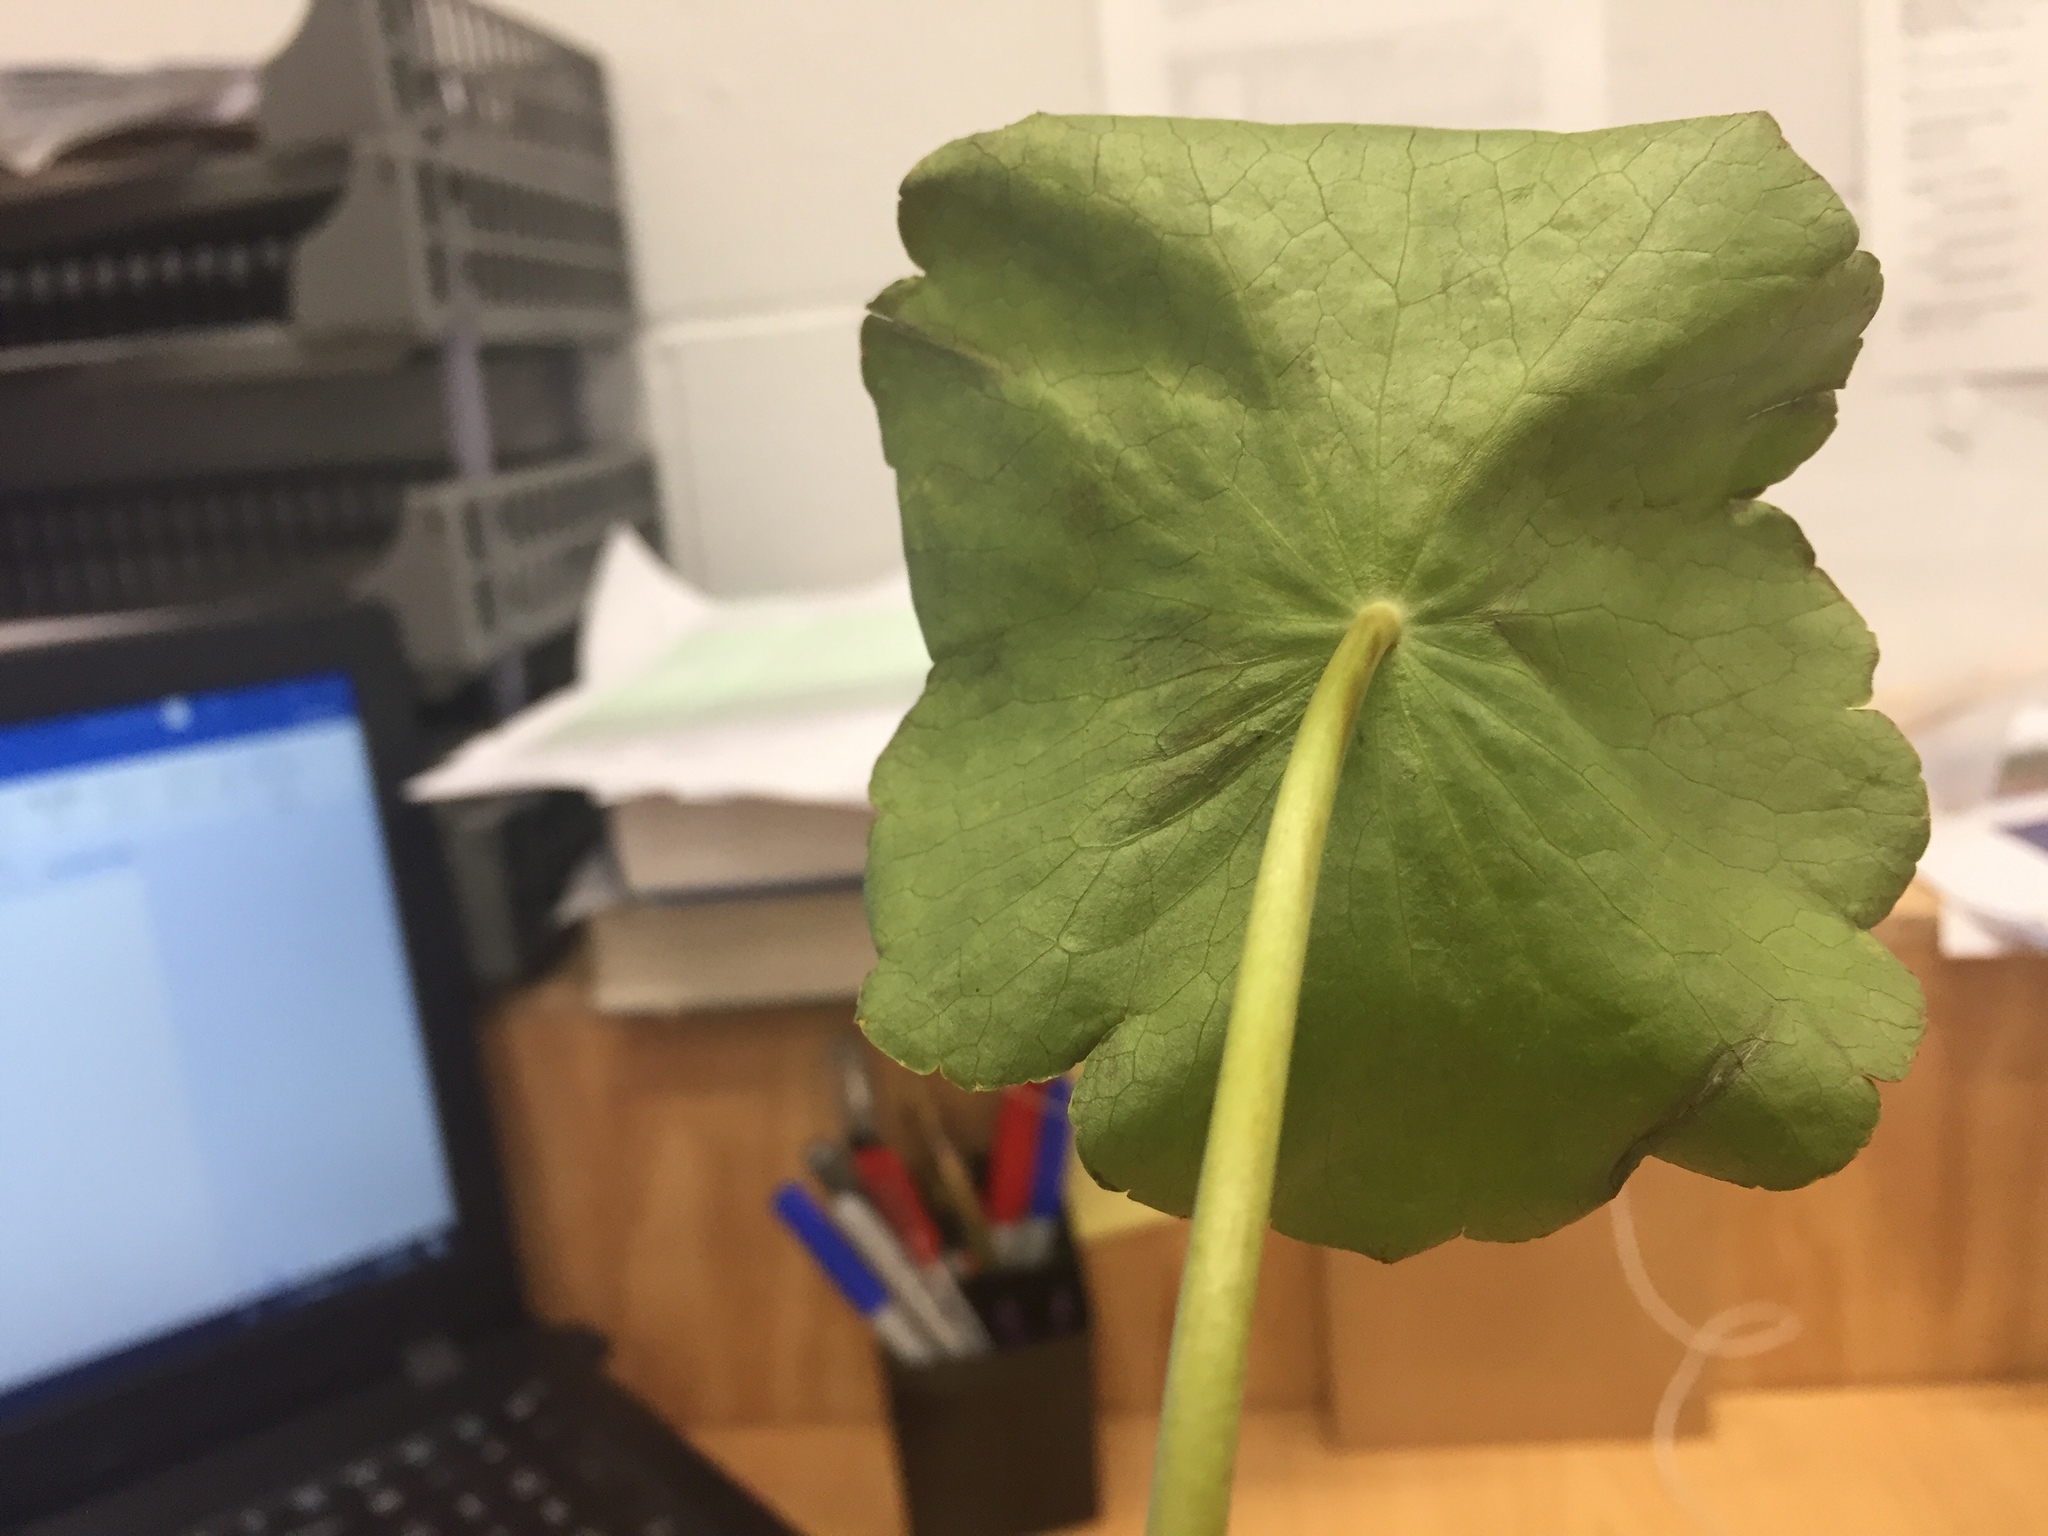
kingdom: Plantae
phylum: Tracheophyta
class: Magnoliopsida
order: Apiales
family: Araliaceae
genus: Hydrocotyle
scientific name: Hydrocotyle umbellata
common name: Water pennywort
